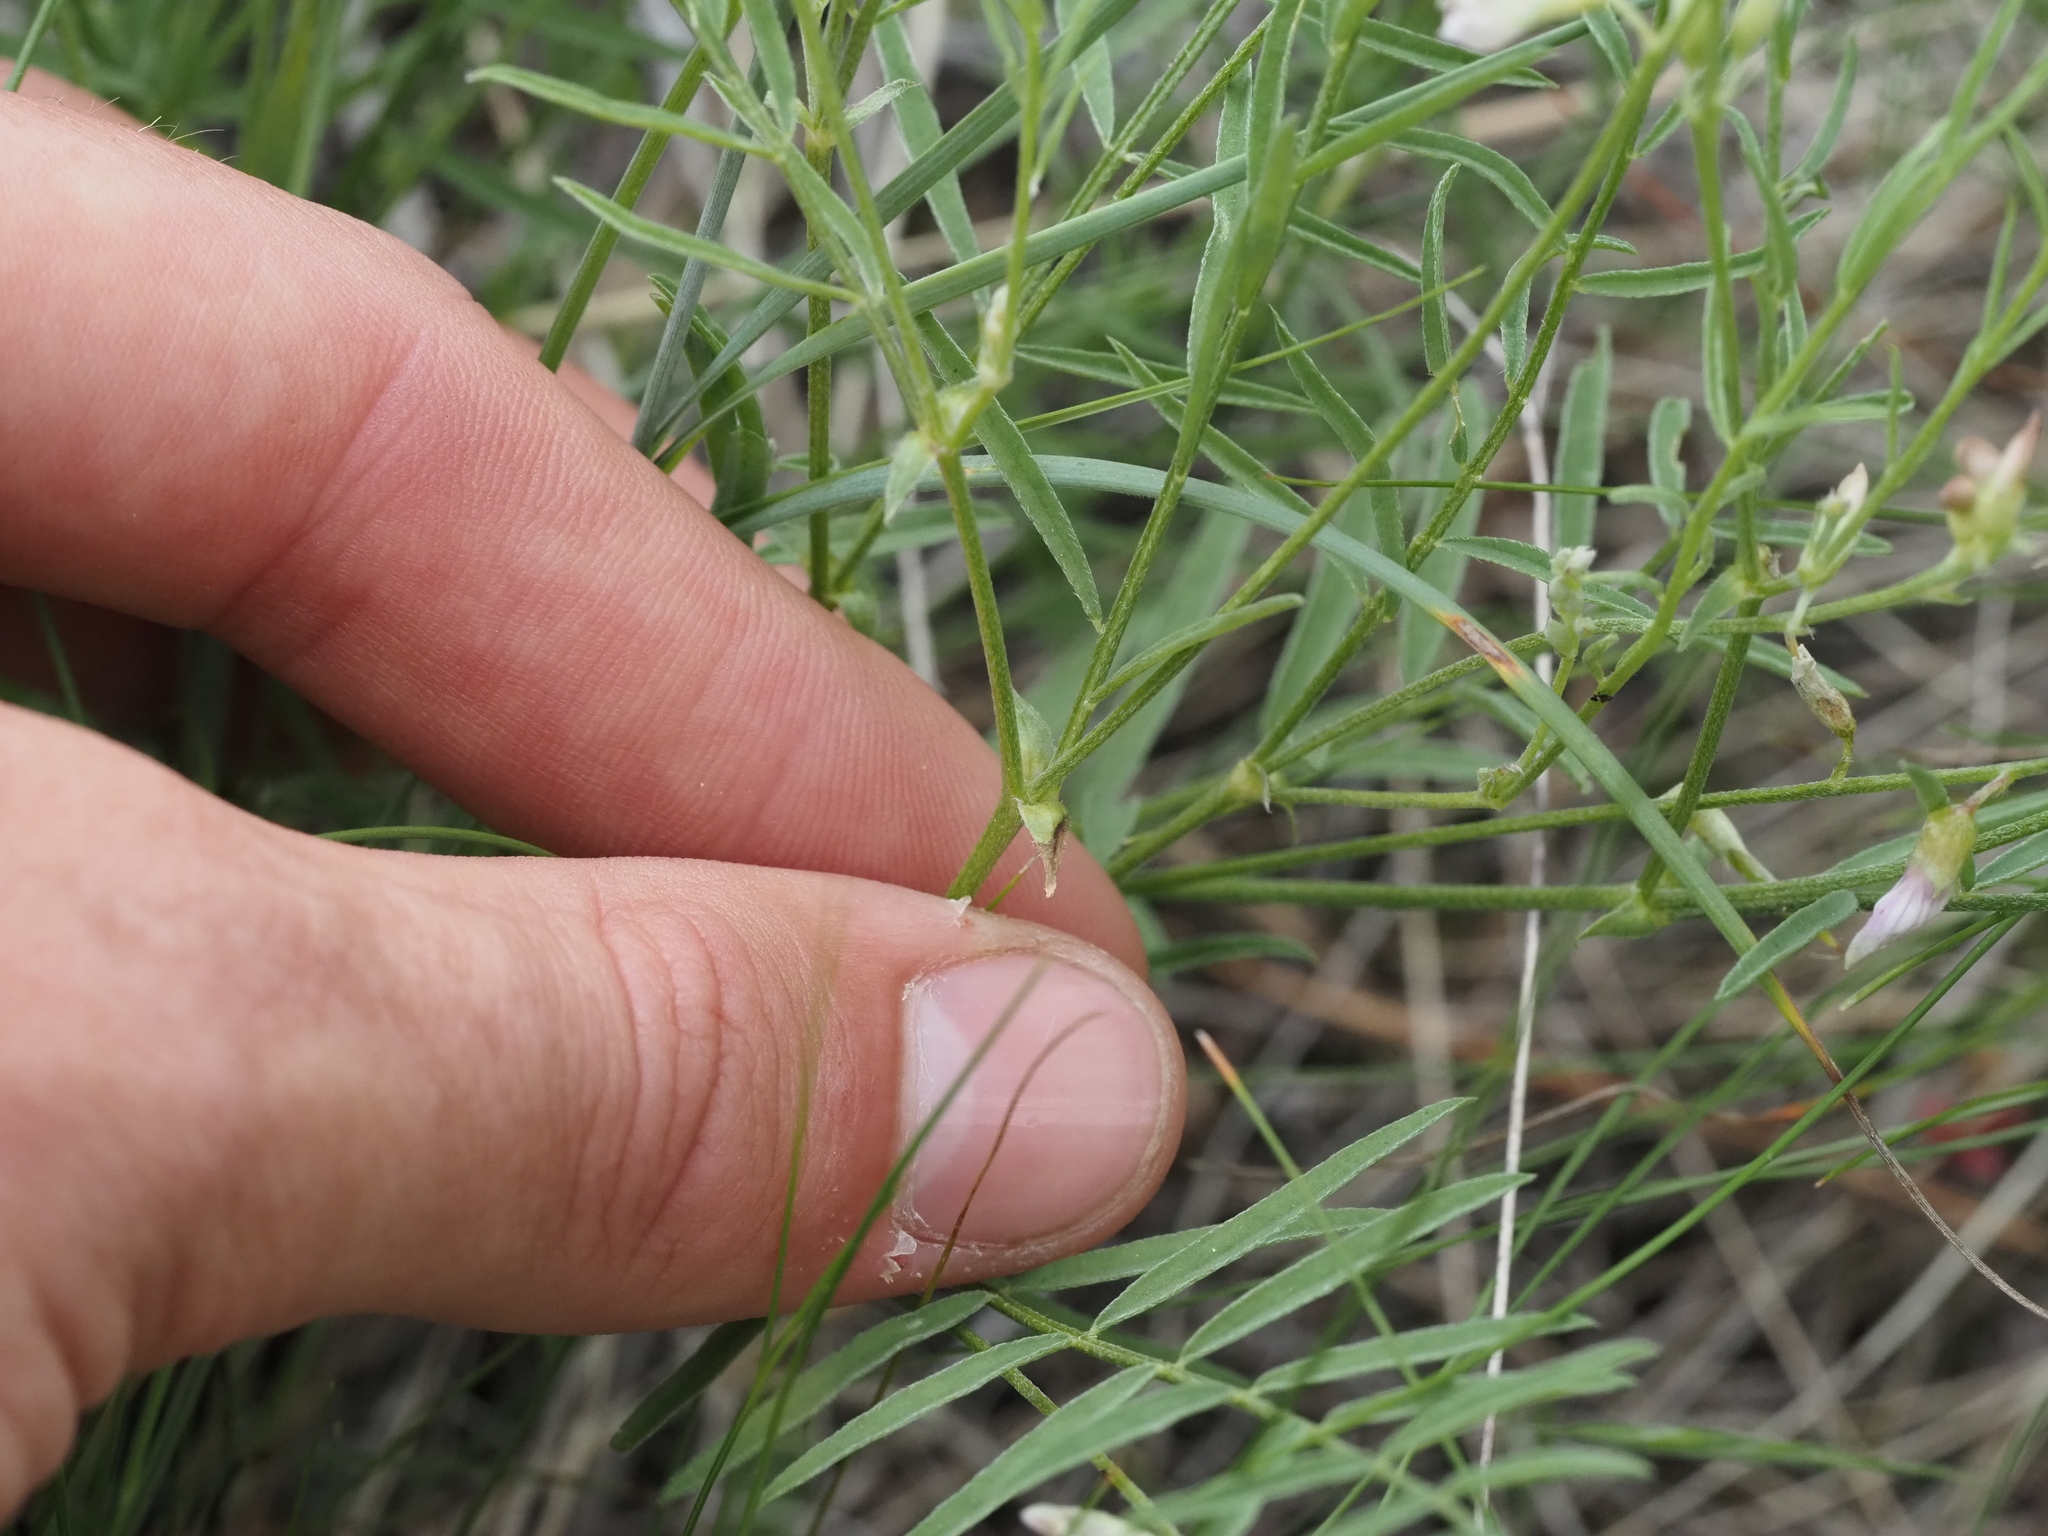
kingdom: Plantae
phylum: Tracheophyta
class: Magnoliopsida
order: Fabales
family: Fabaceae
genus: Astragalus
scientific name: Astragalus miser
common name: Timber milkvetch
